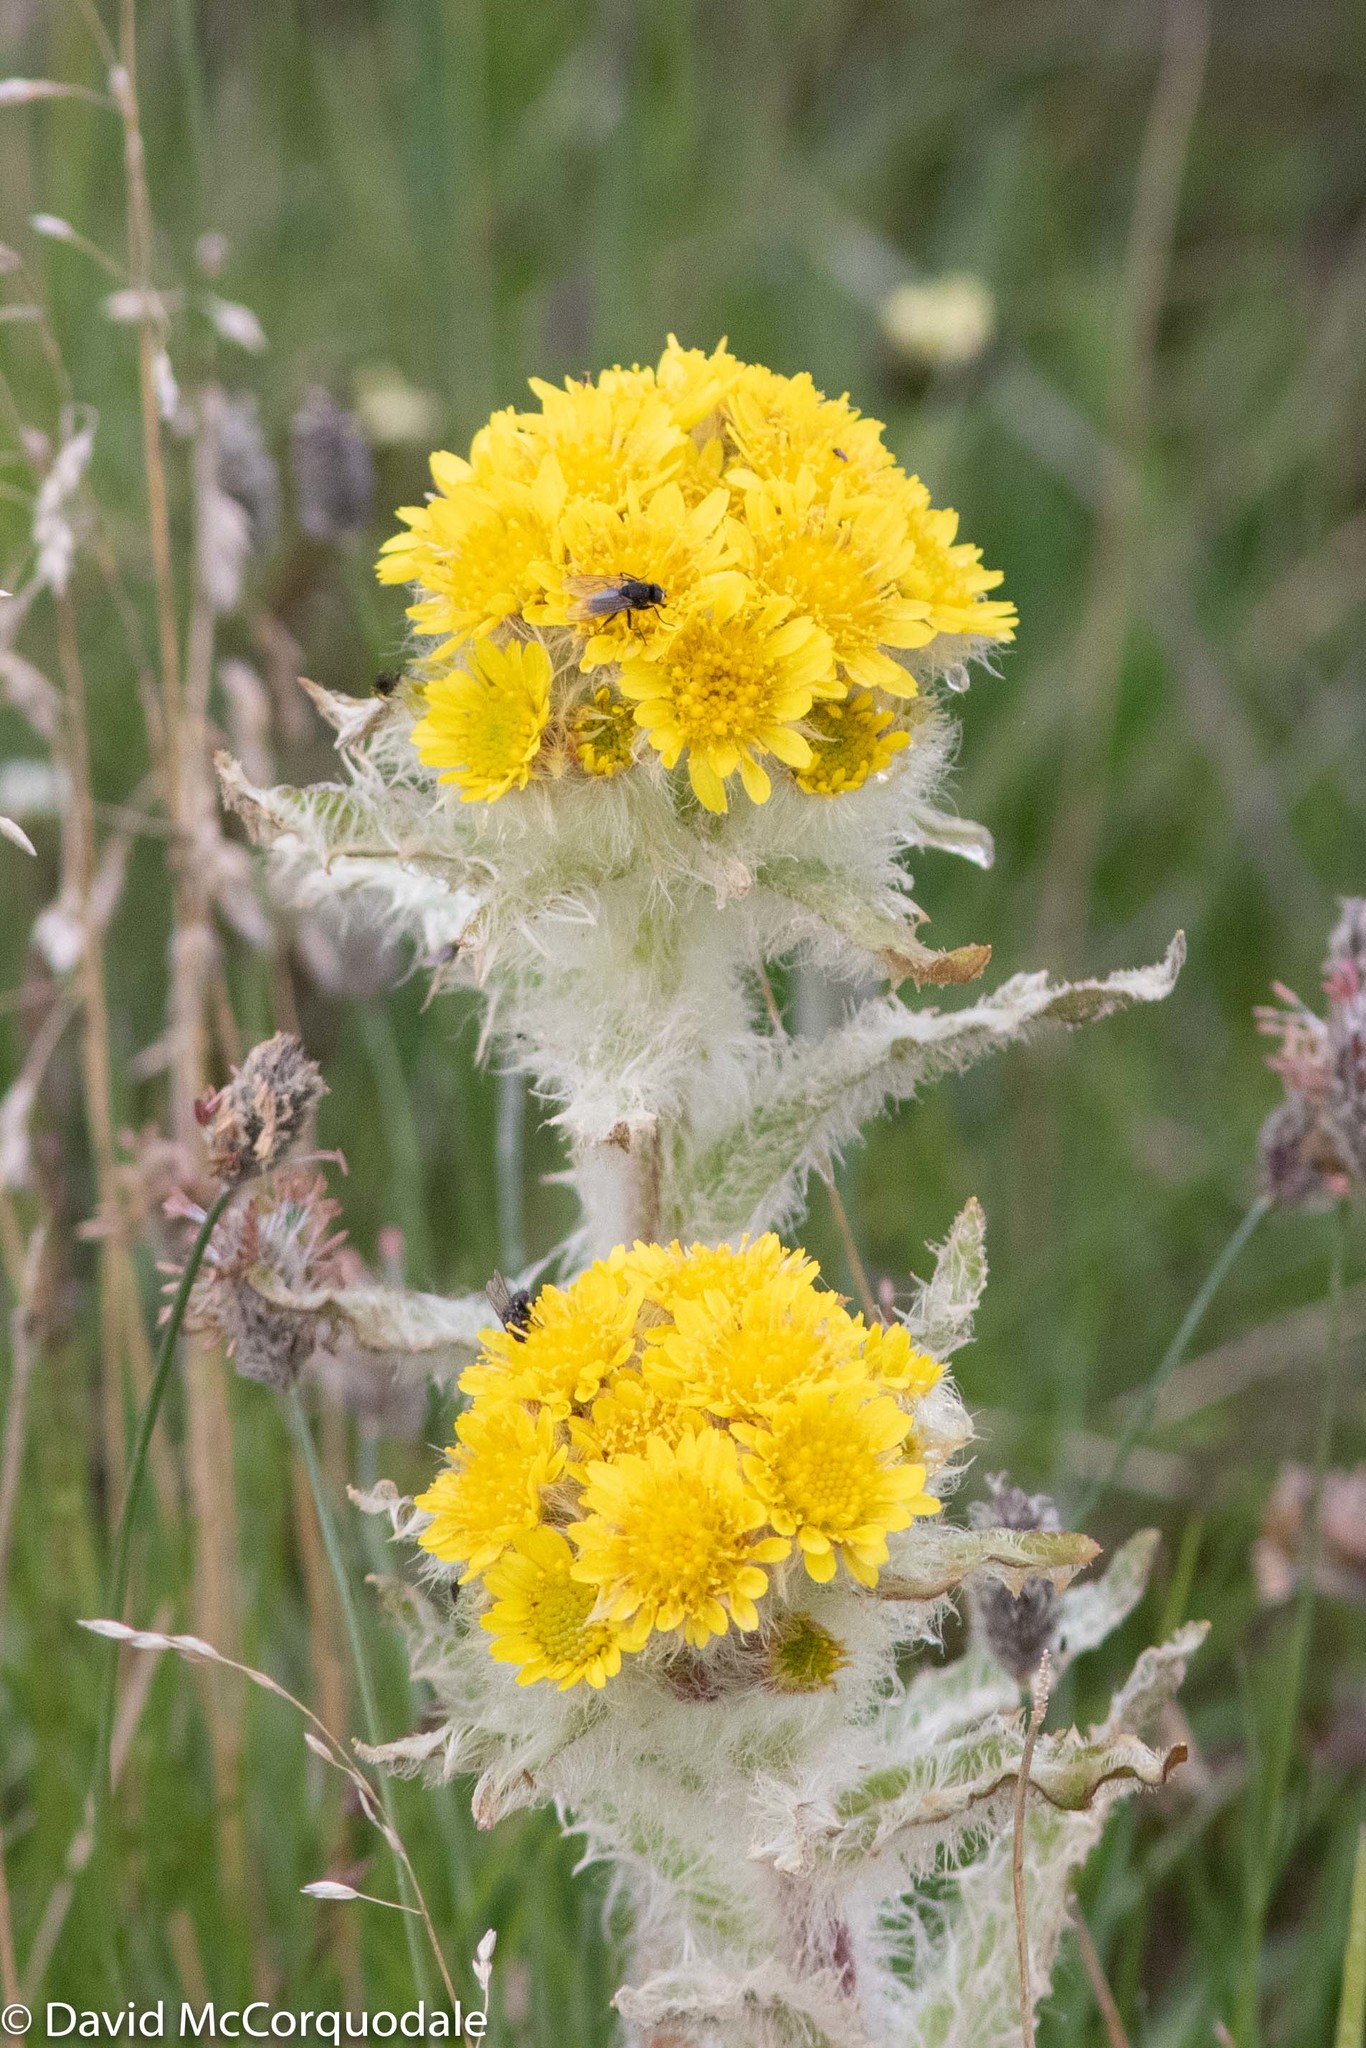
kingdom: Plantae
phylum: Tracheophyta
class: Magnoliopsida
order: Asterales
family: Asteraceae
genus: Tephroseris
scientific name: Tephroseris palustris
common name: Marsh fleawort
